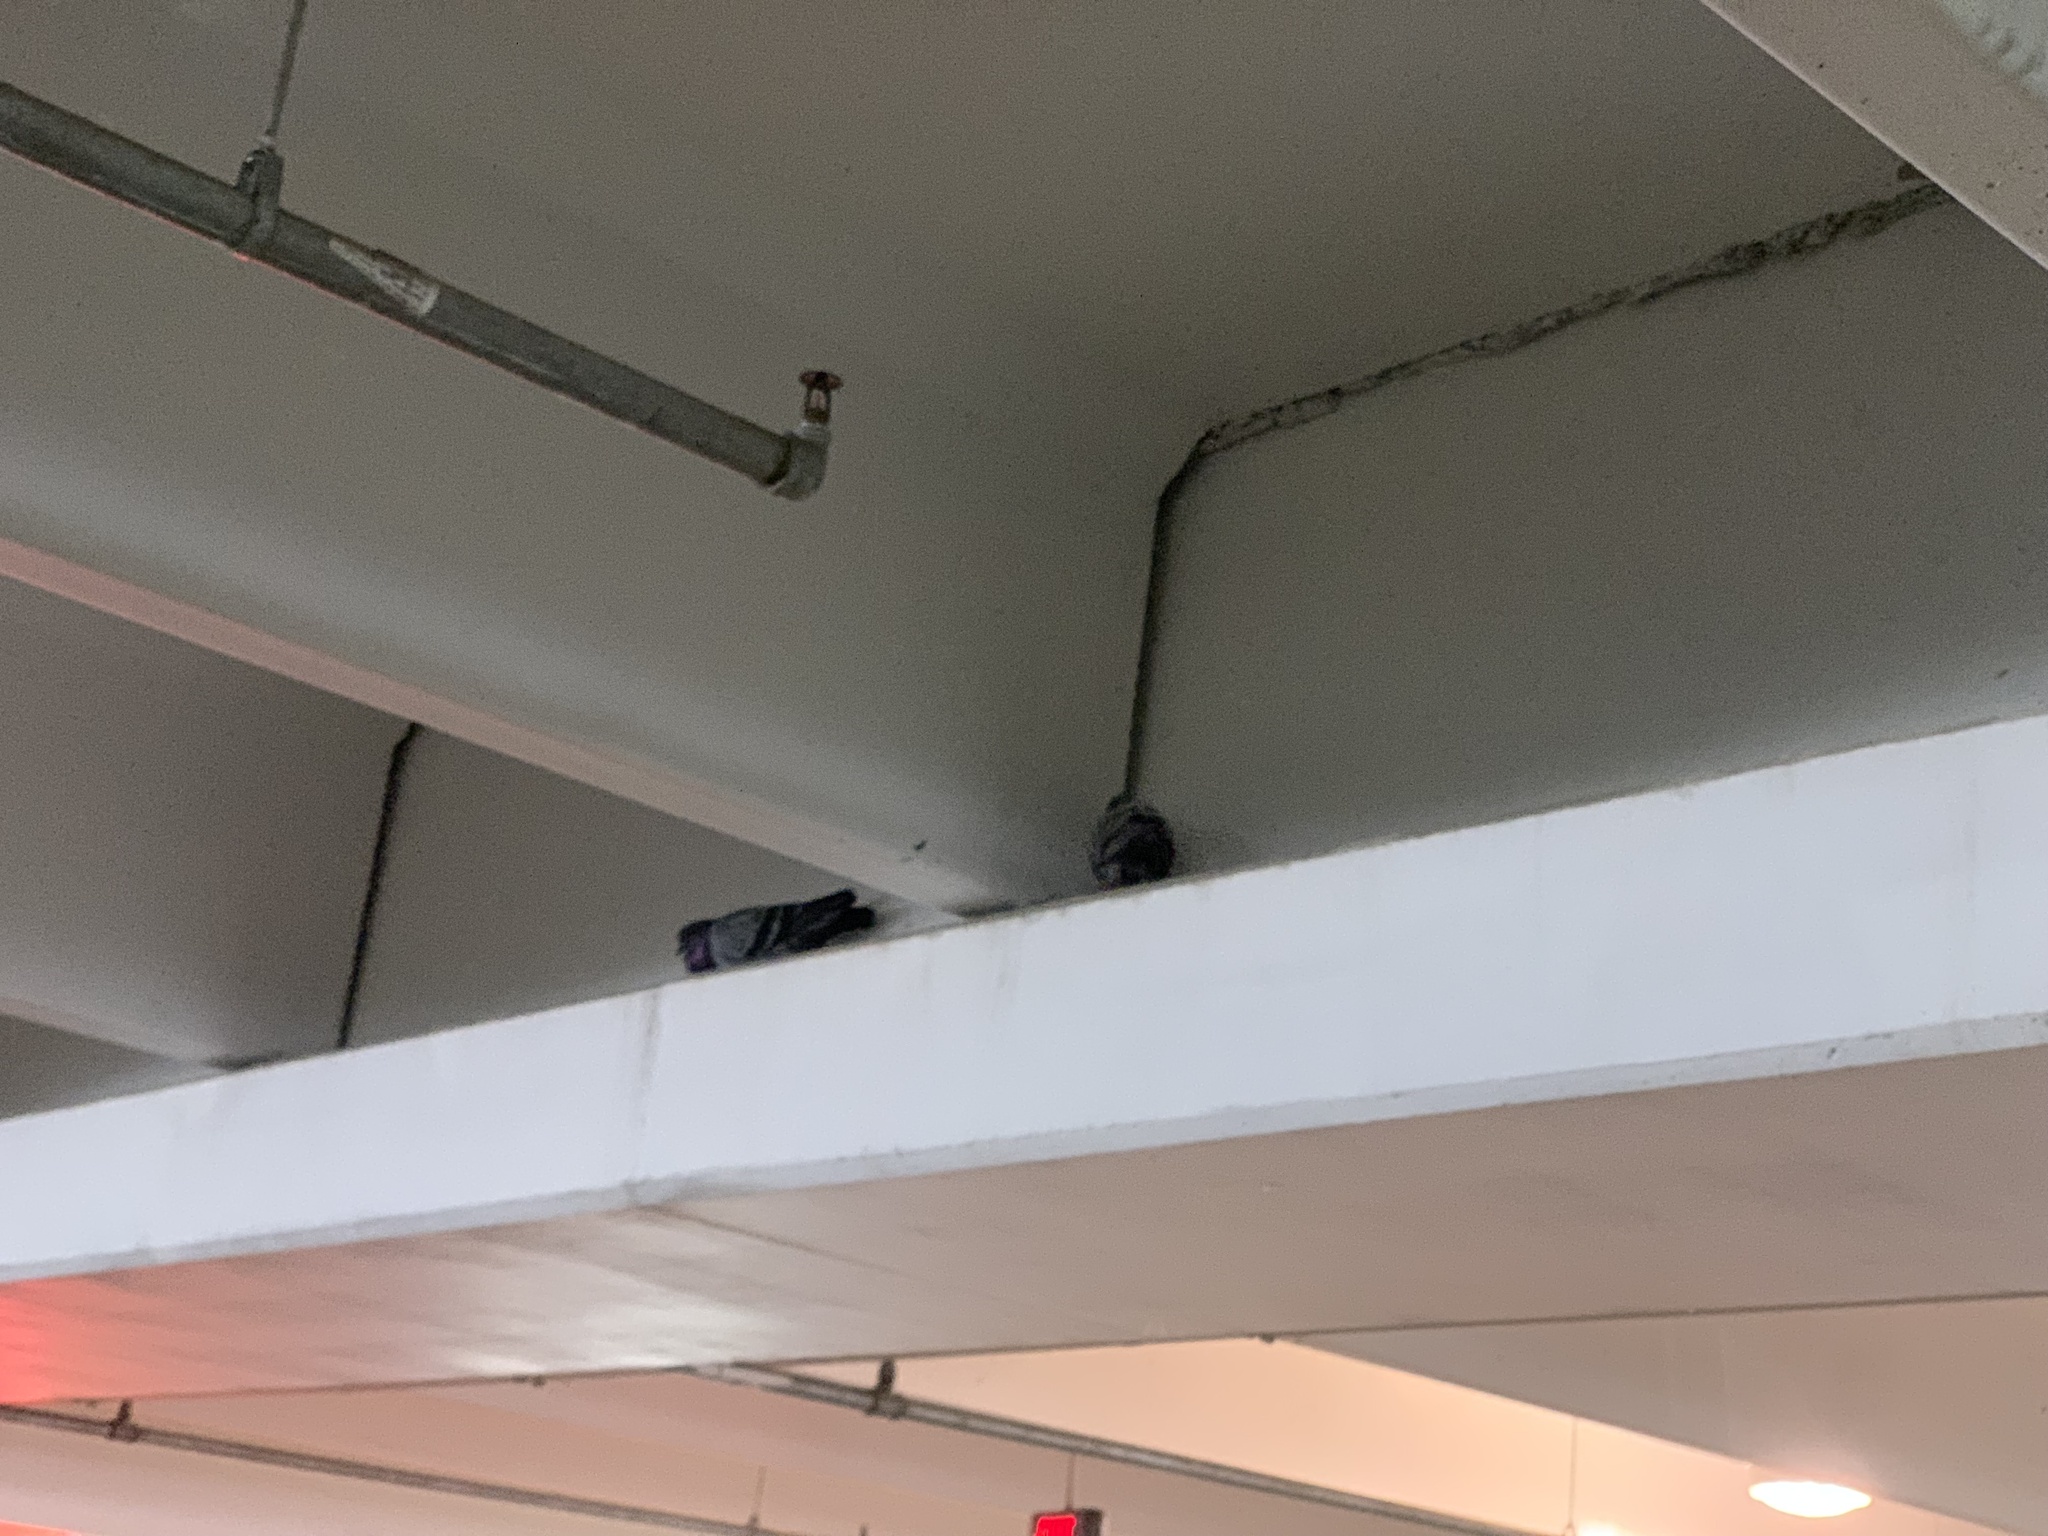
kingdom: Animalia
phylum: Chordata
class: Aves
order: Columbiformes
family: Columbidae
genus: Columba
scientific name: Columba livia
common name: Rock pigeon
